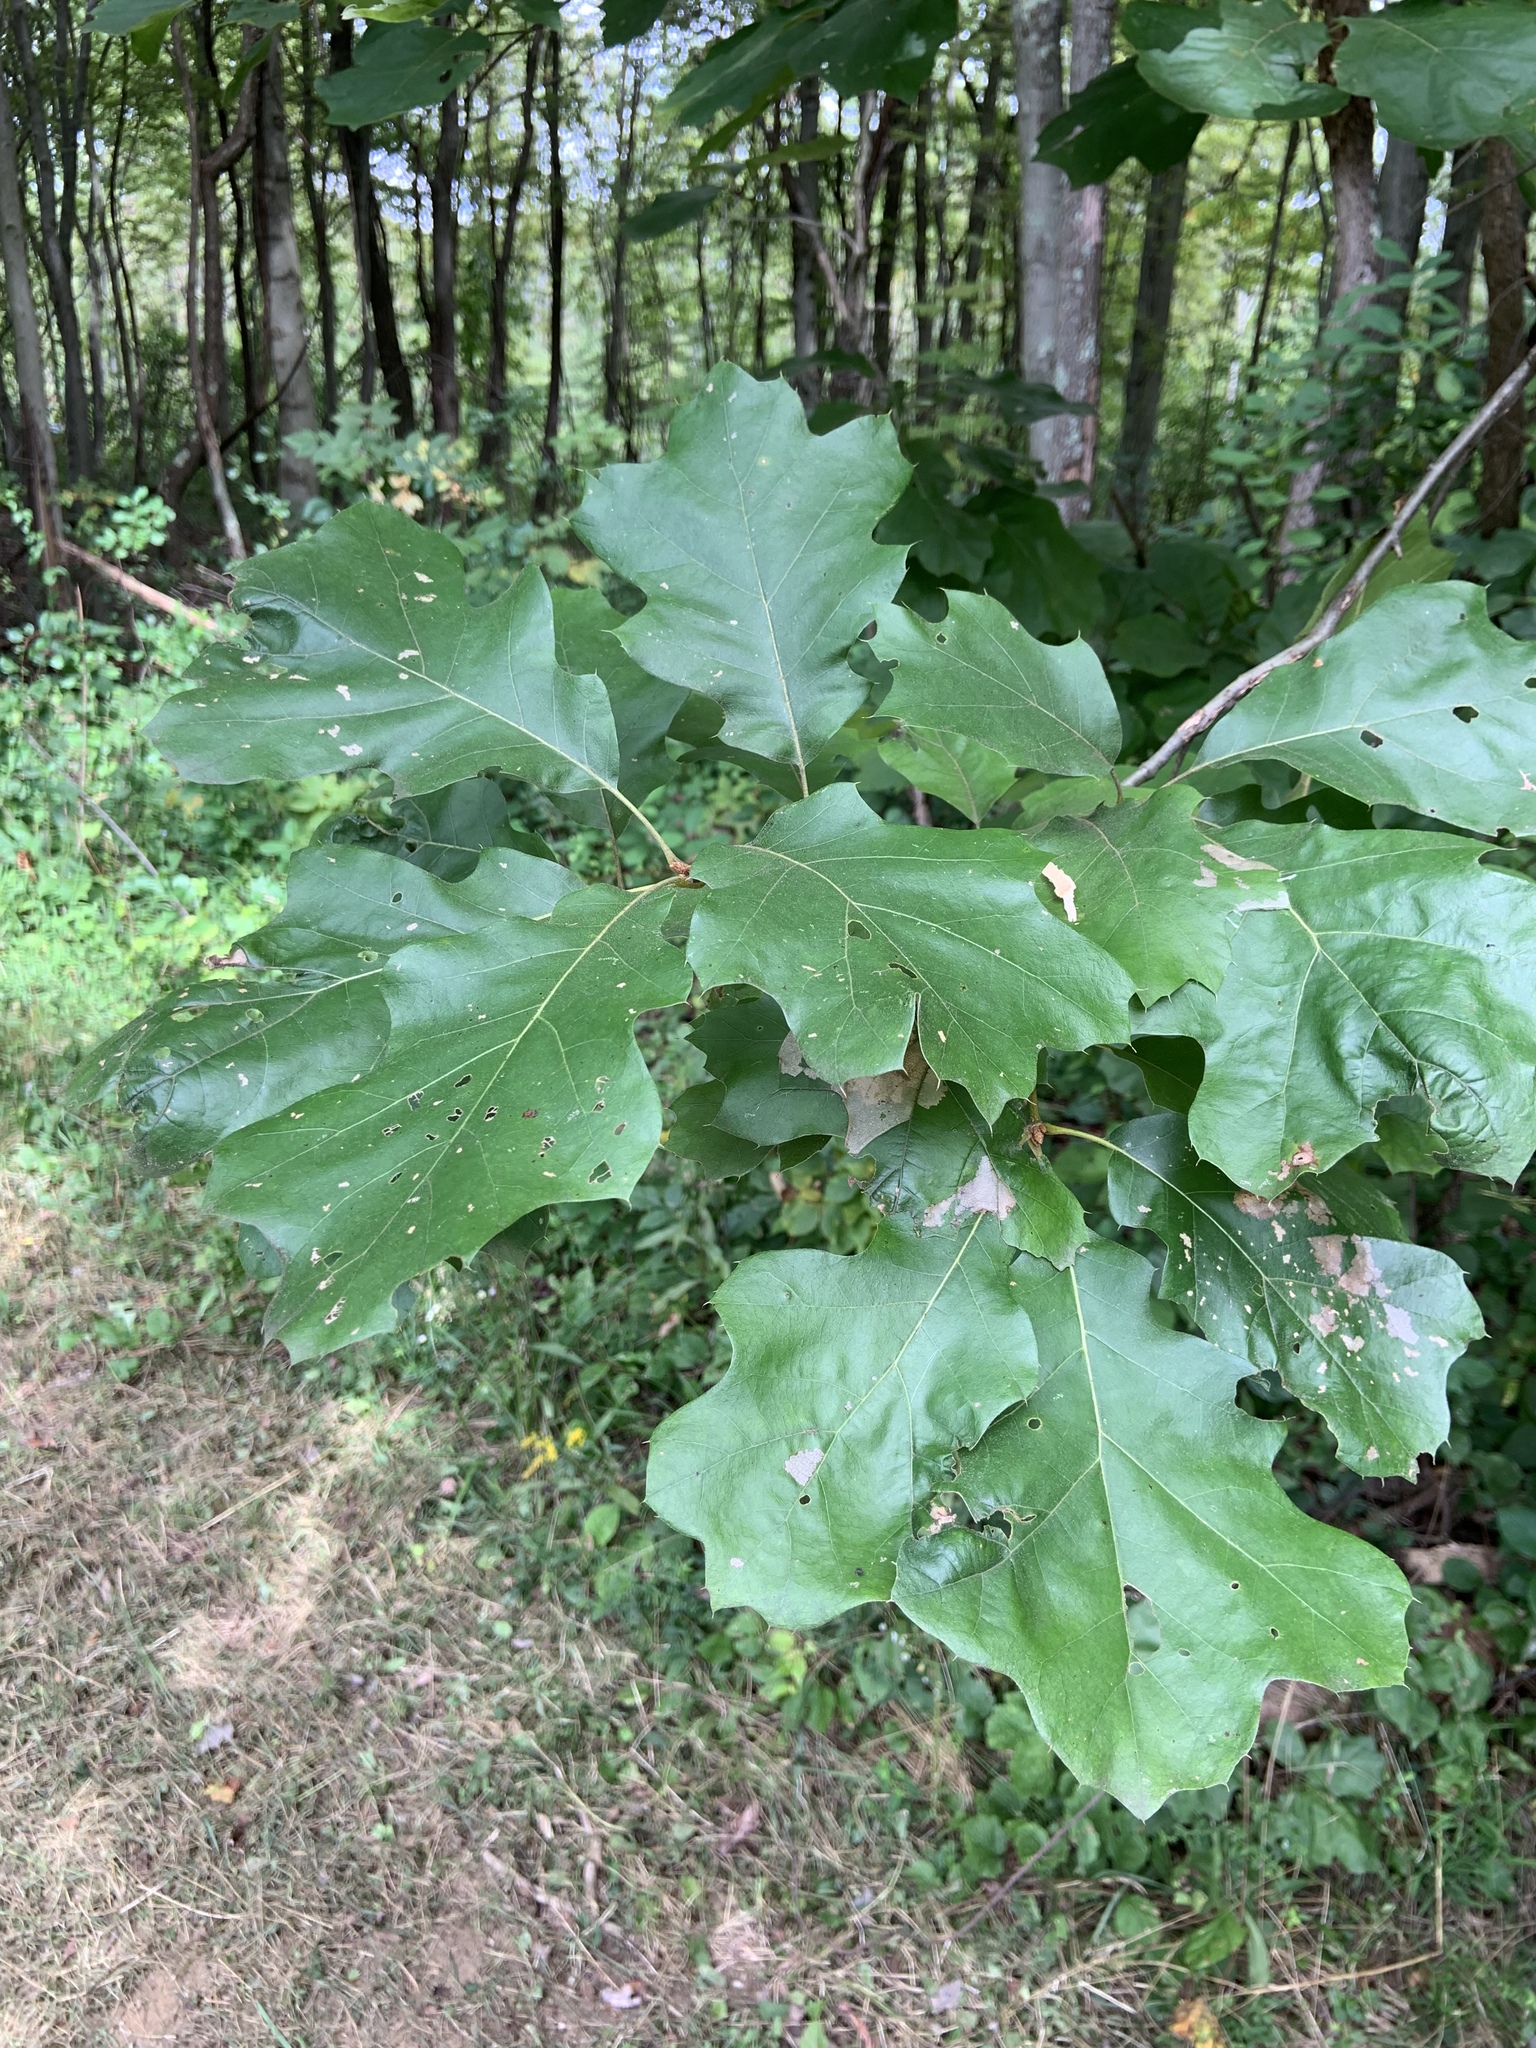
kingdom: Plantae
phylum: Tracheophyta
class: Magnoliopsida
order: Fagales
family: Fagaceae
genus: Quercus
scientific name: Quercus velutina
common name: Black oak
